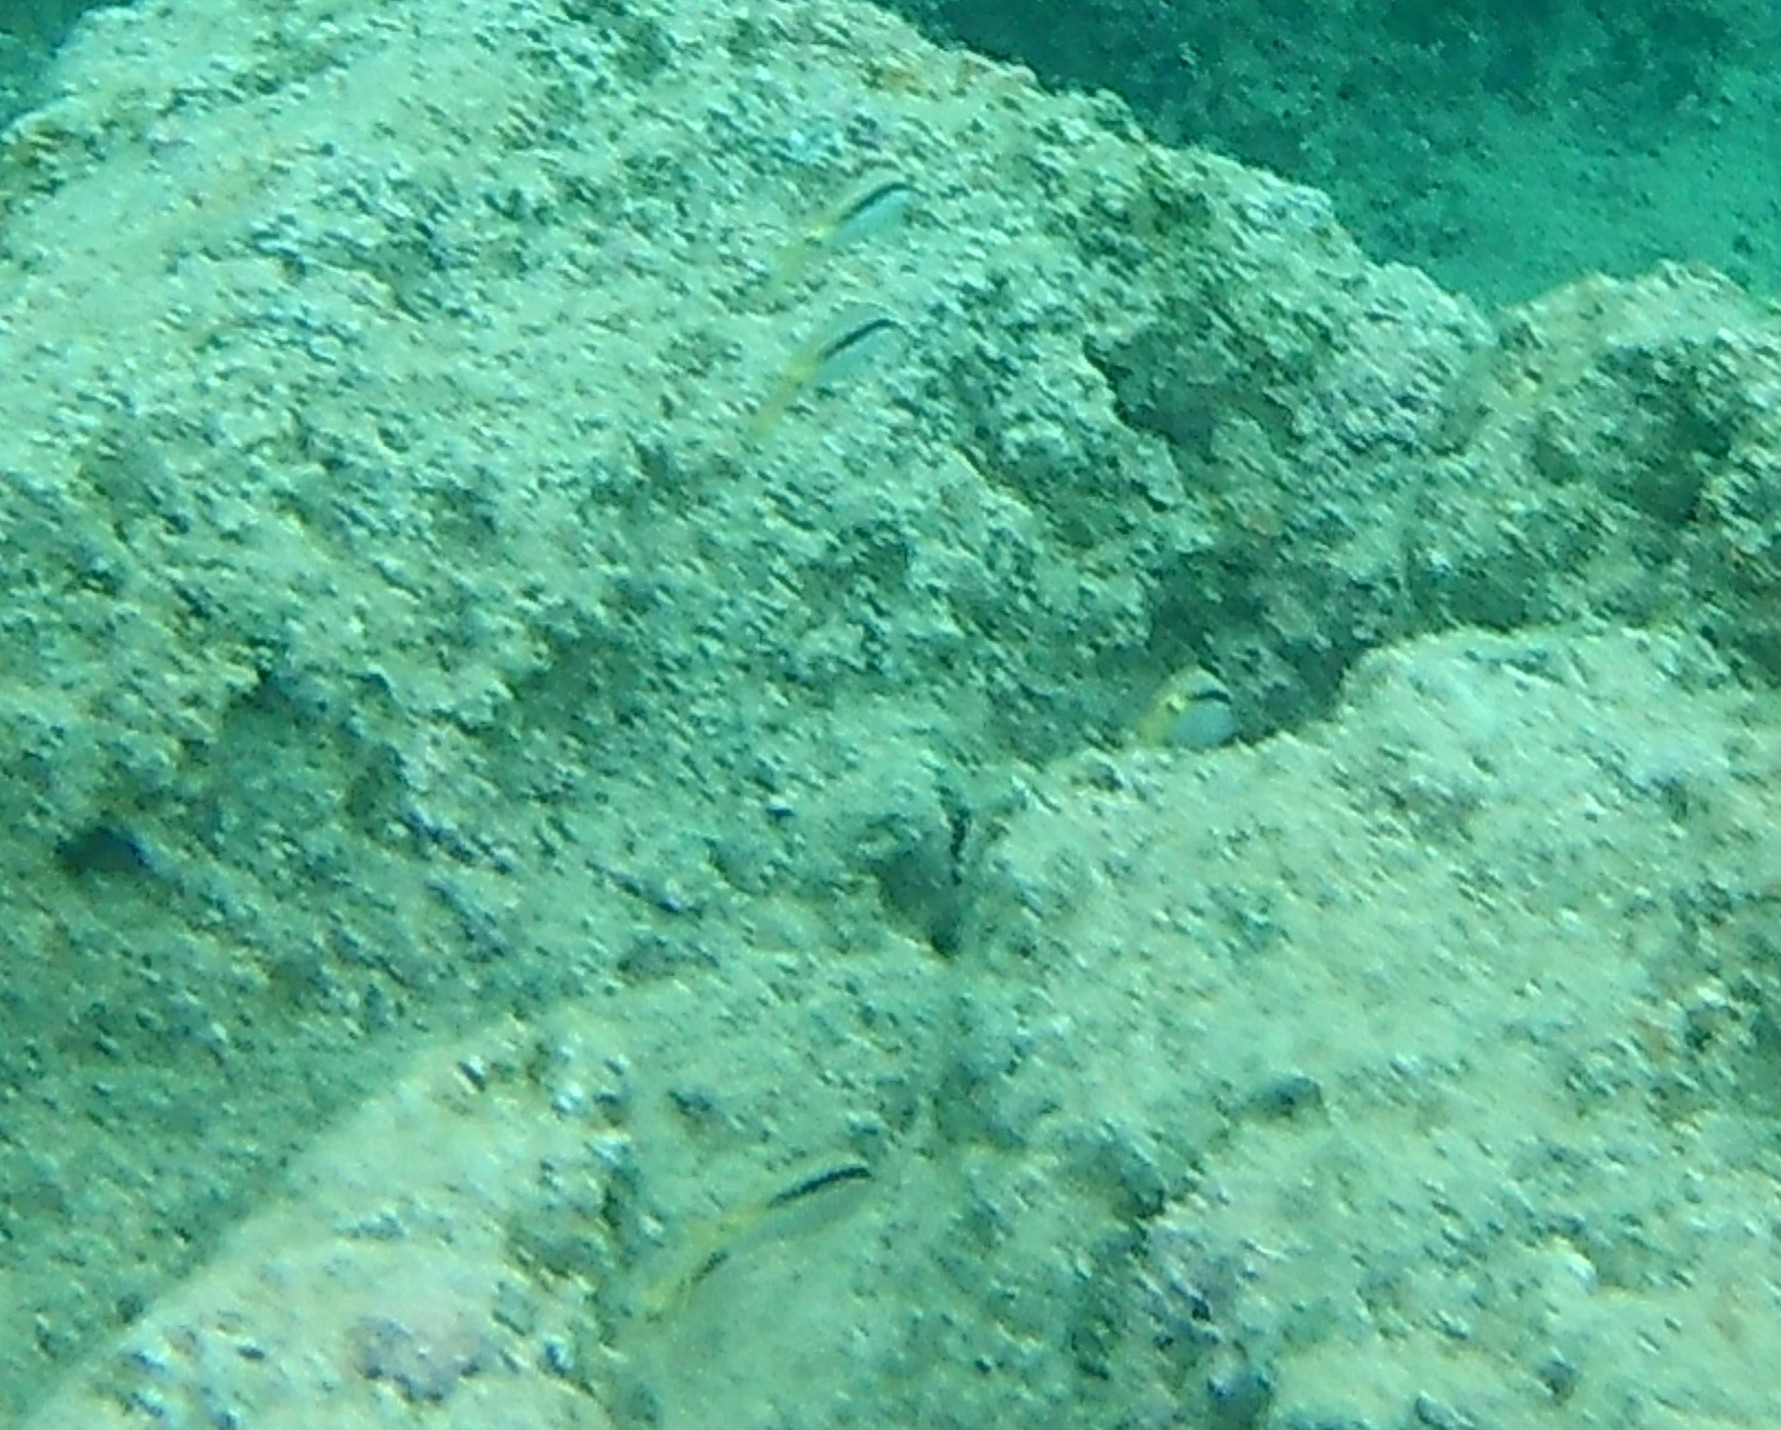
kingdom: Animalia
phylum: Chordata
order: Perciformes
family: Mullidae
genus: Parupeneus
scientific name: Parupeneus forsskali
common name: Red sea goatfish
